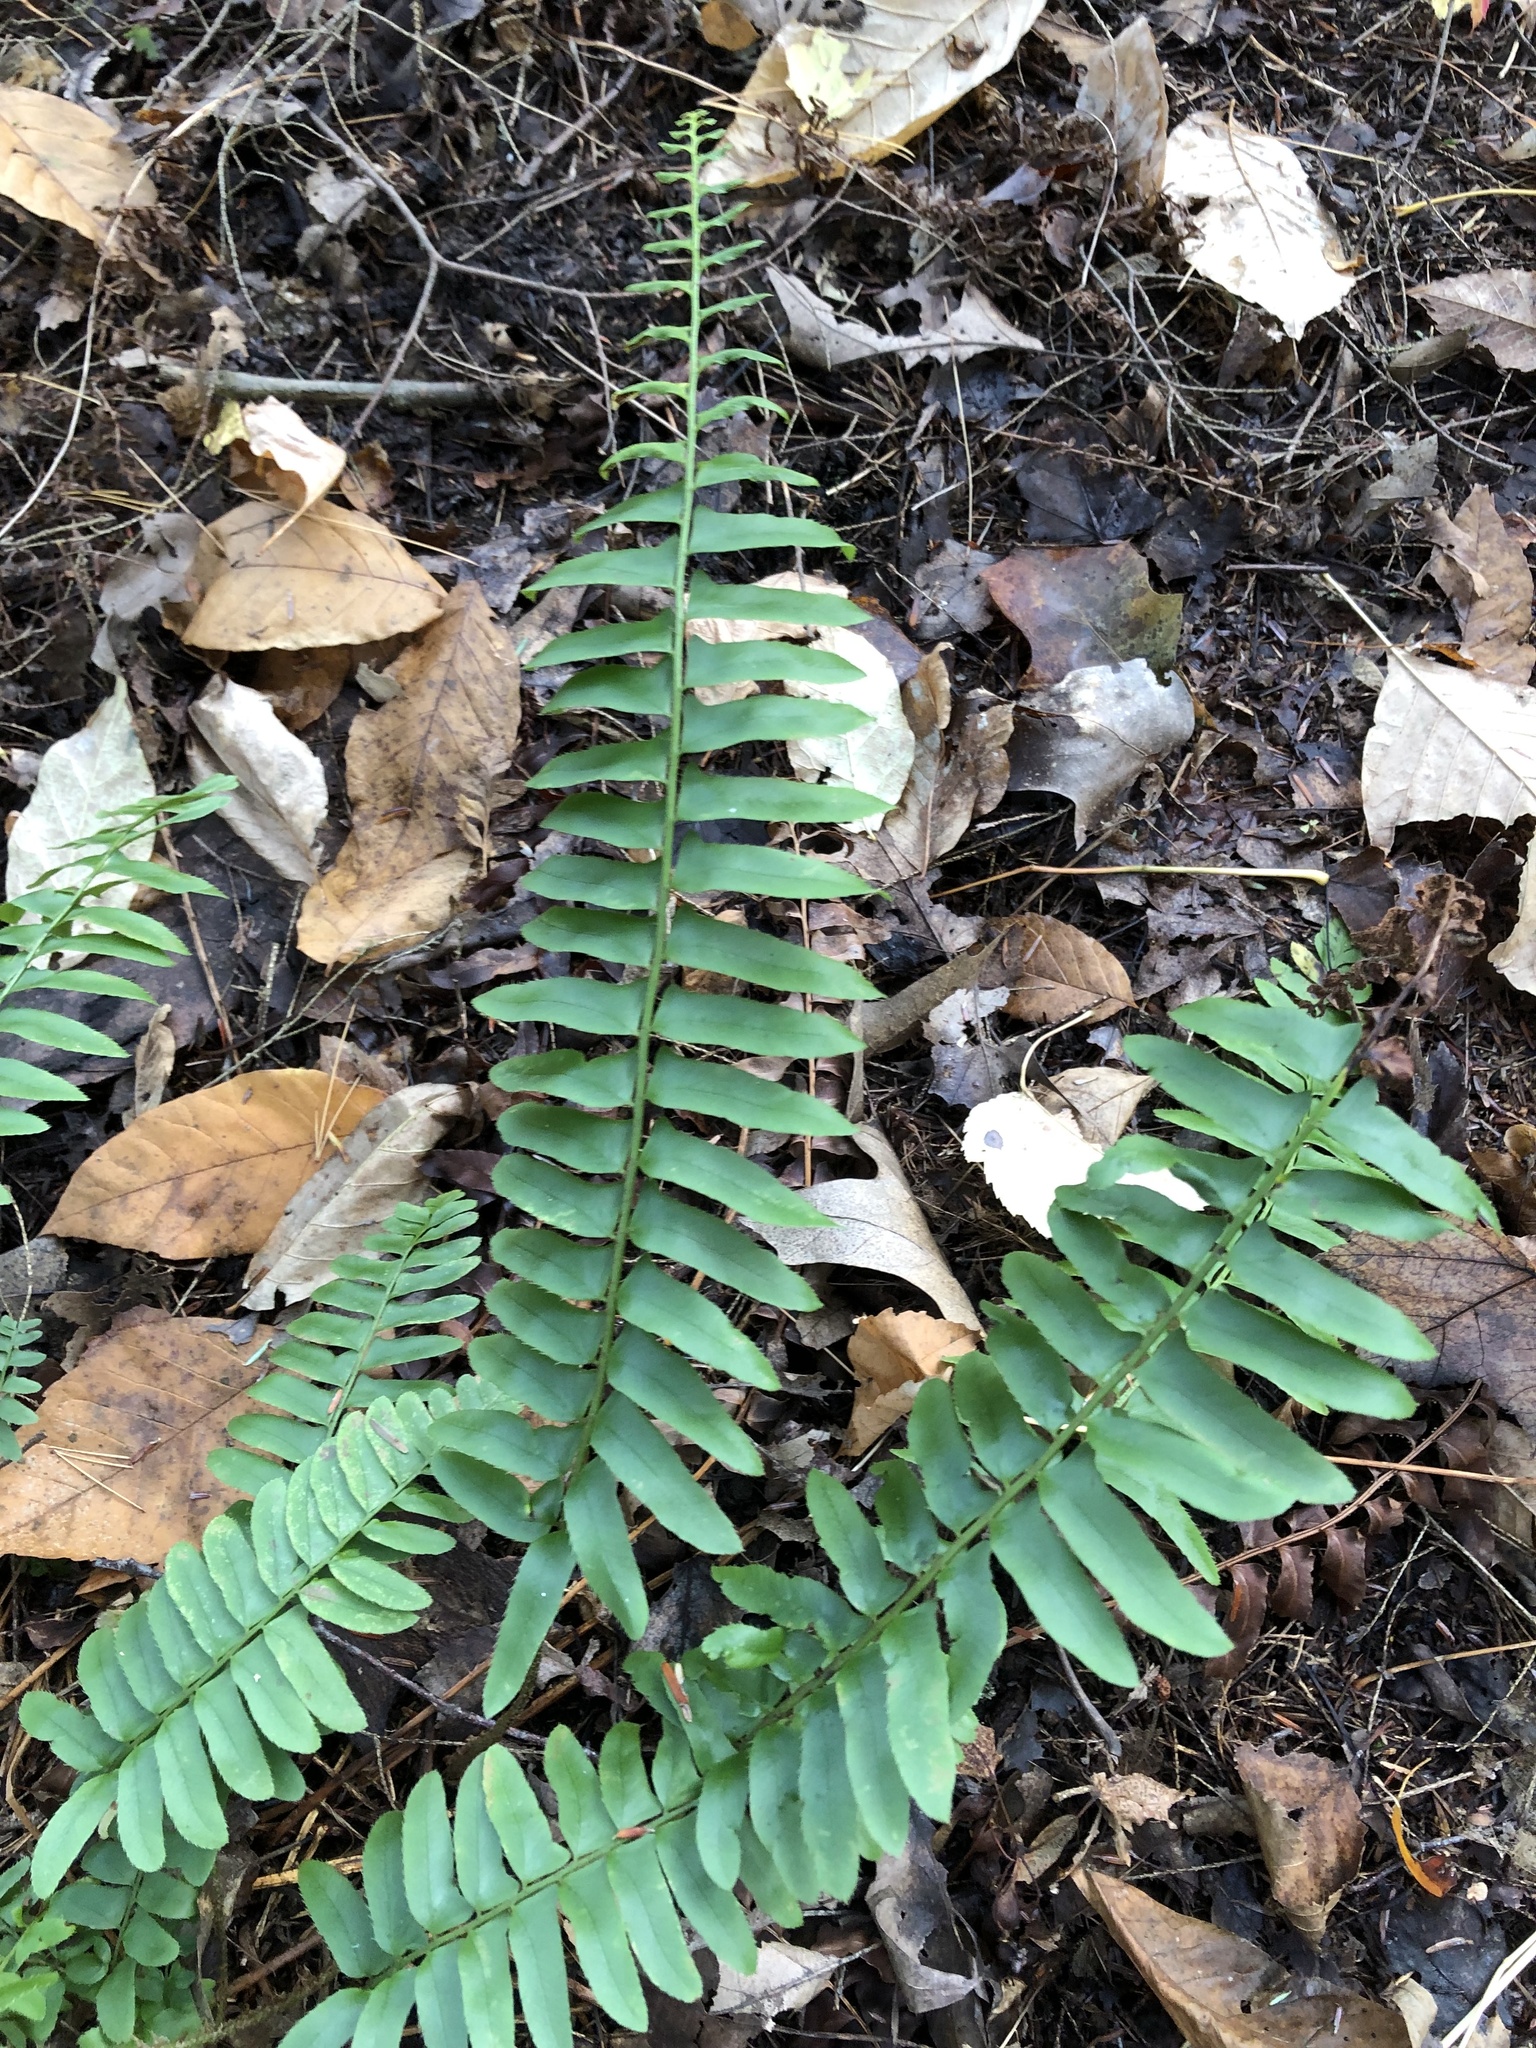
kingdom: Plantae
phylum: Tracheophyta
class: Polypodiopsida
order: Polypodiales
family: Dryopteridaceae
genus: Polystichum
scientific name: Polystichum acrostichoides
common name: Christmas fern
